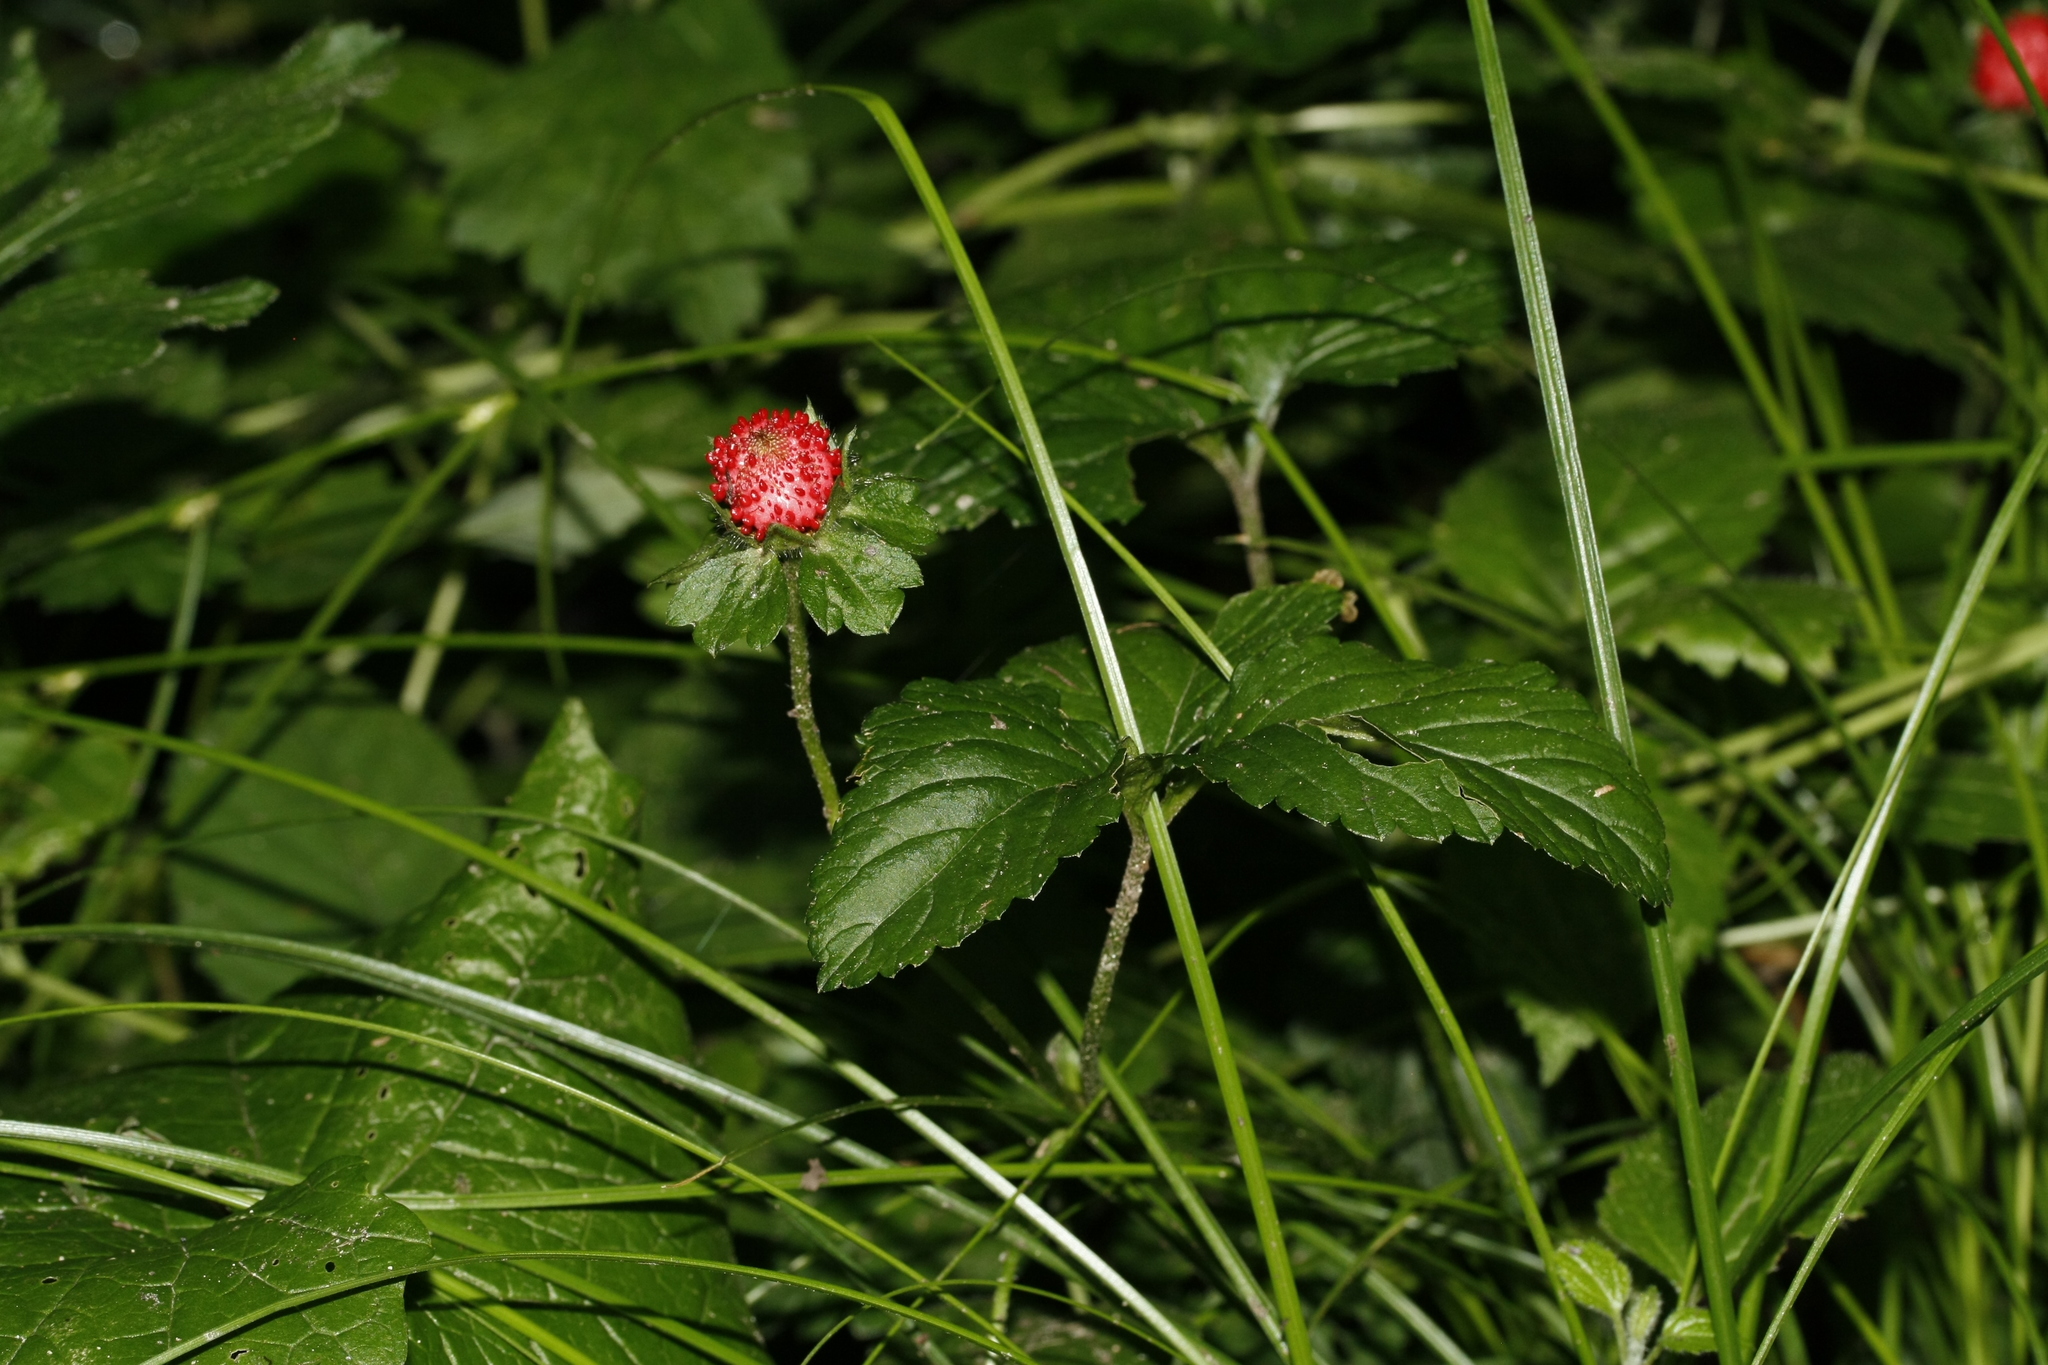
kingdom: Plantae
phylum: Tracheophyta
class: Magnoliopsida
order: Rosales
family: Rosaceae
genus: Potentilla
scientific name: Potentilla indica
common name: Yellow-flowered strawberry
